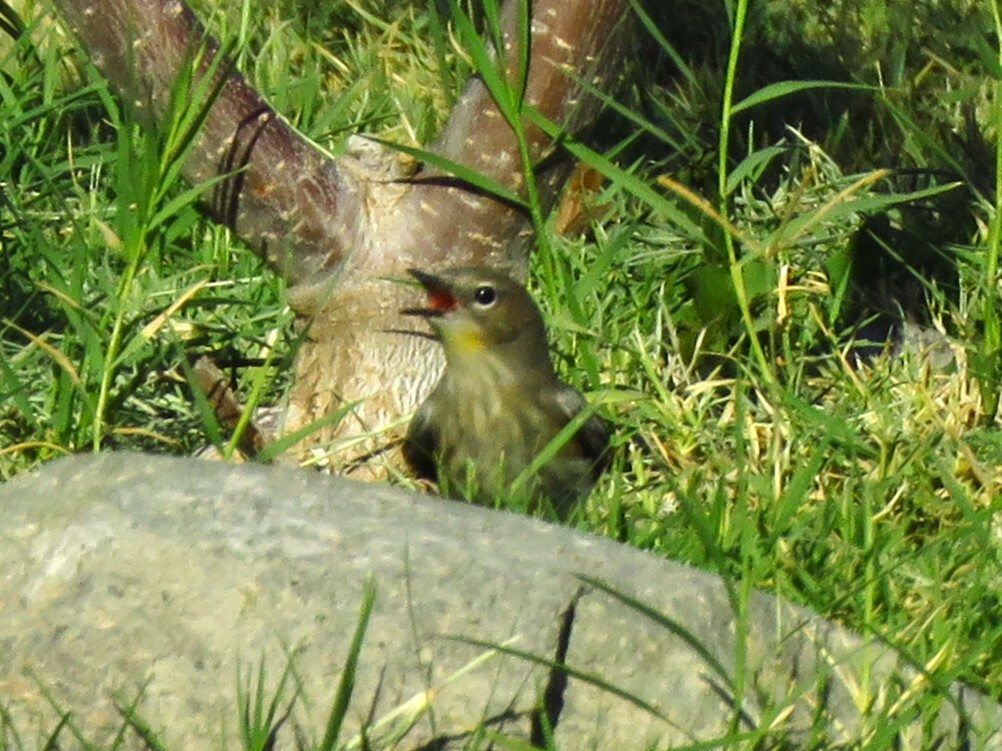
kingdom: Animalia
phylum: Chordata
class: Aves
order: Passeriformes
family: Parulidae
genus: Setophaga
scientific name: Setophaga coronata
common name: Myrtle warbler
